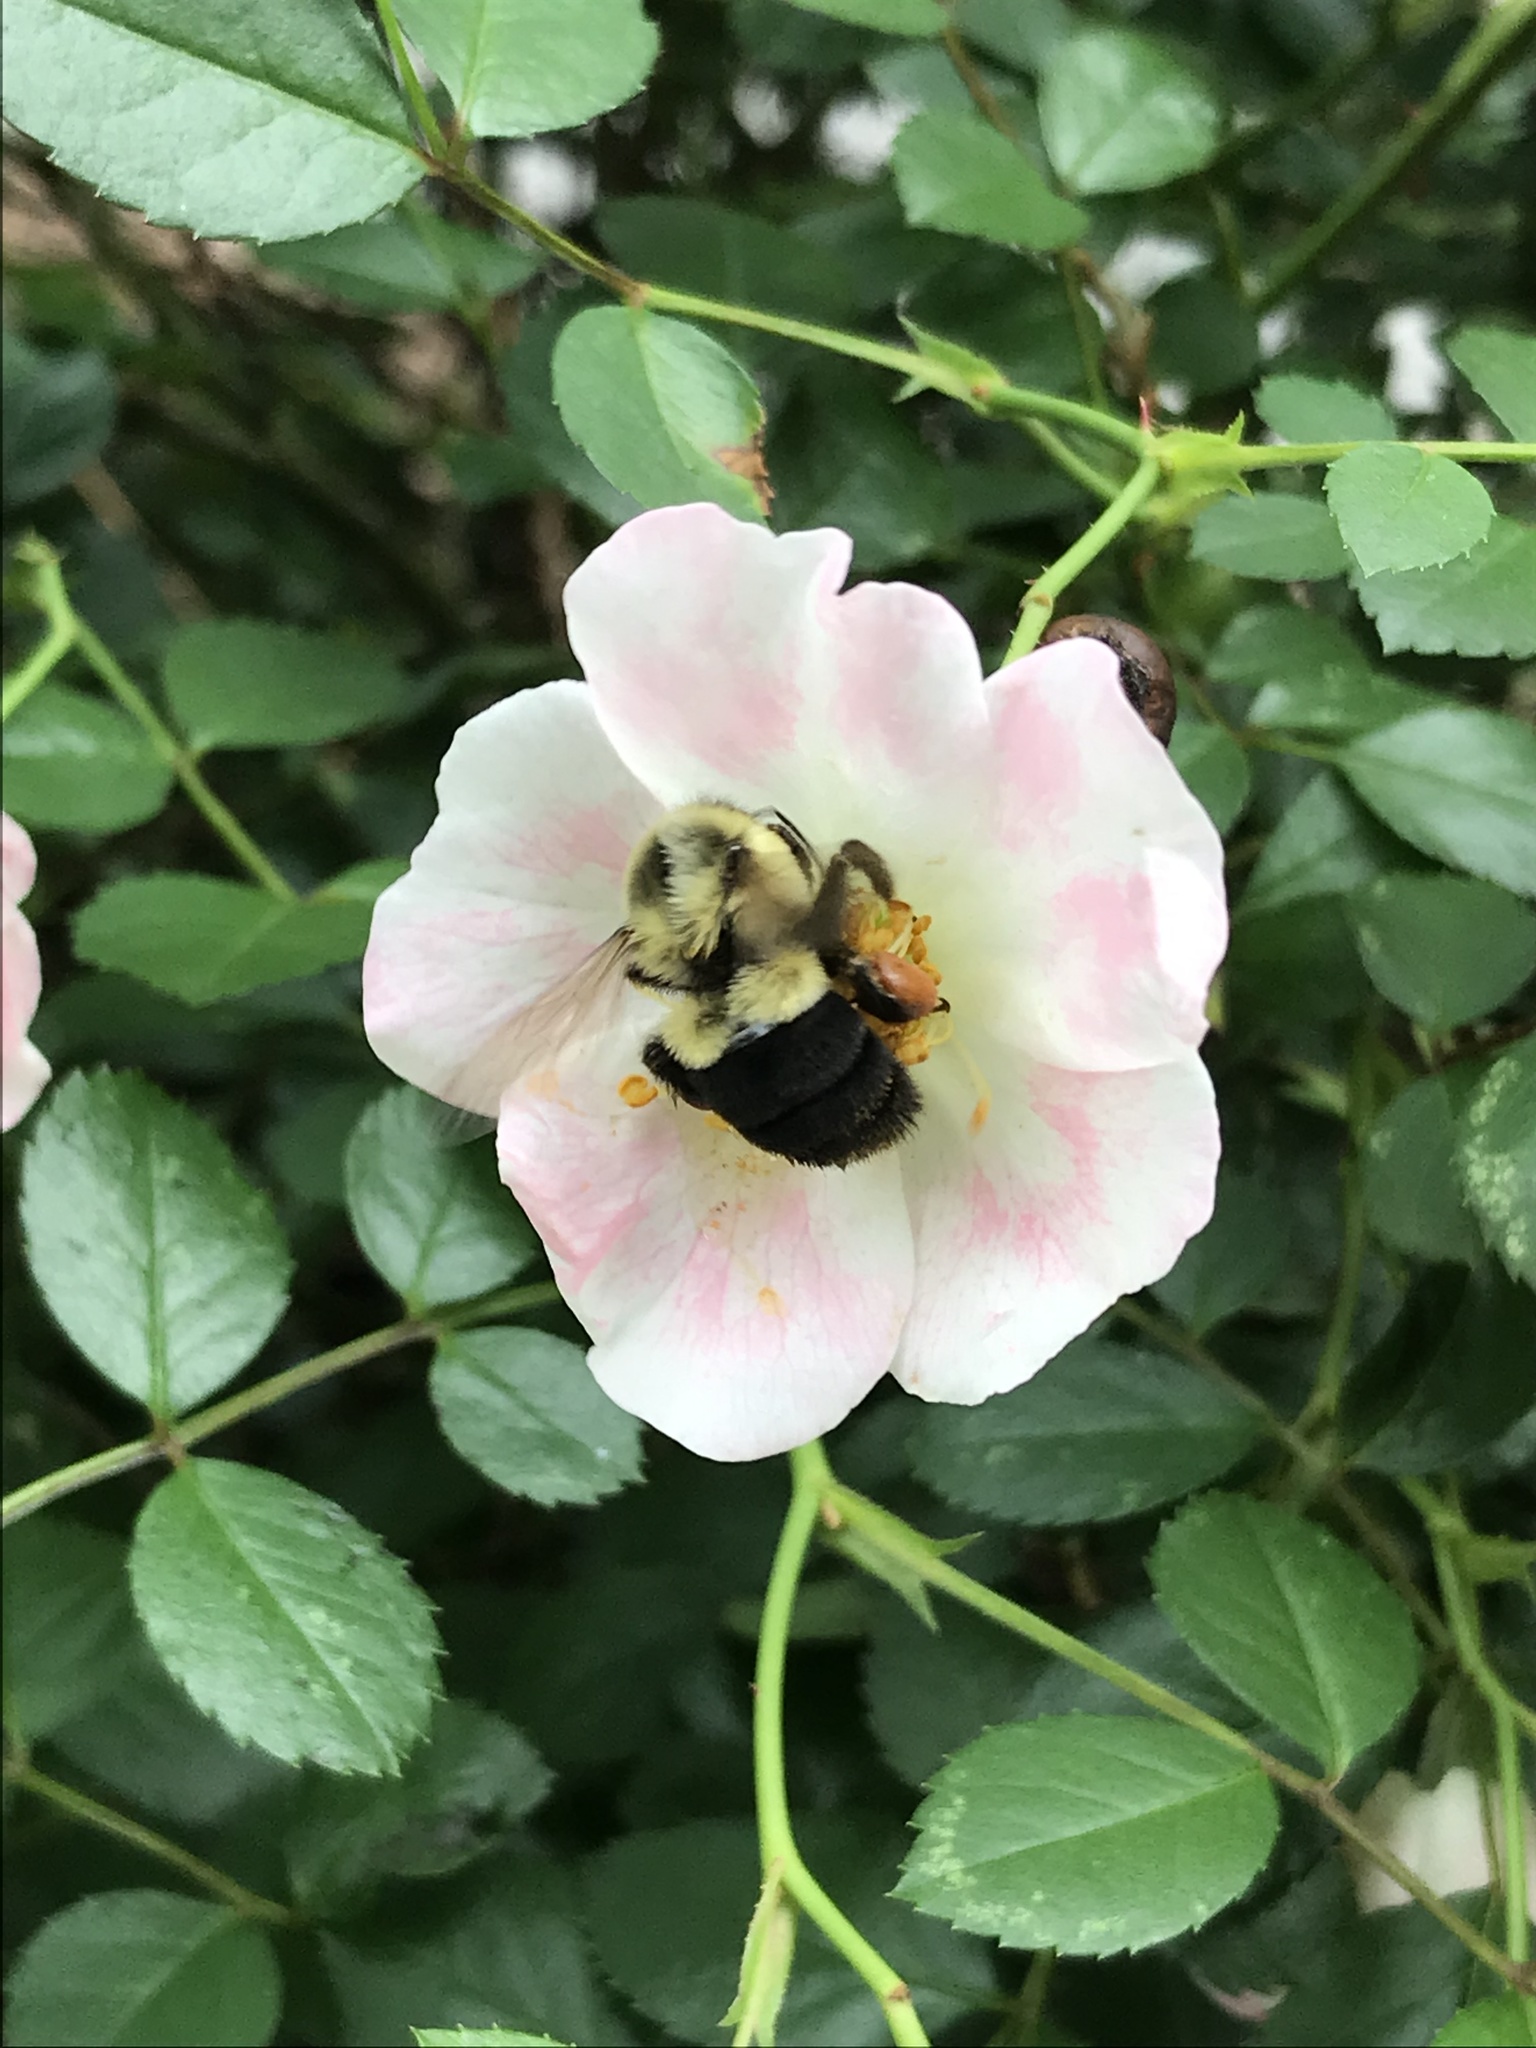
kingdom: Animalia
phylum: Arthropoda
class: Insecta
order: Hymenoptera
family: Apidae
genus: Bombus
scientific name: Bombus impatiens
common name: Common eastern bumble bee
